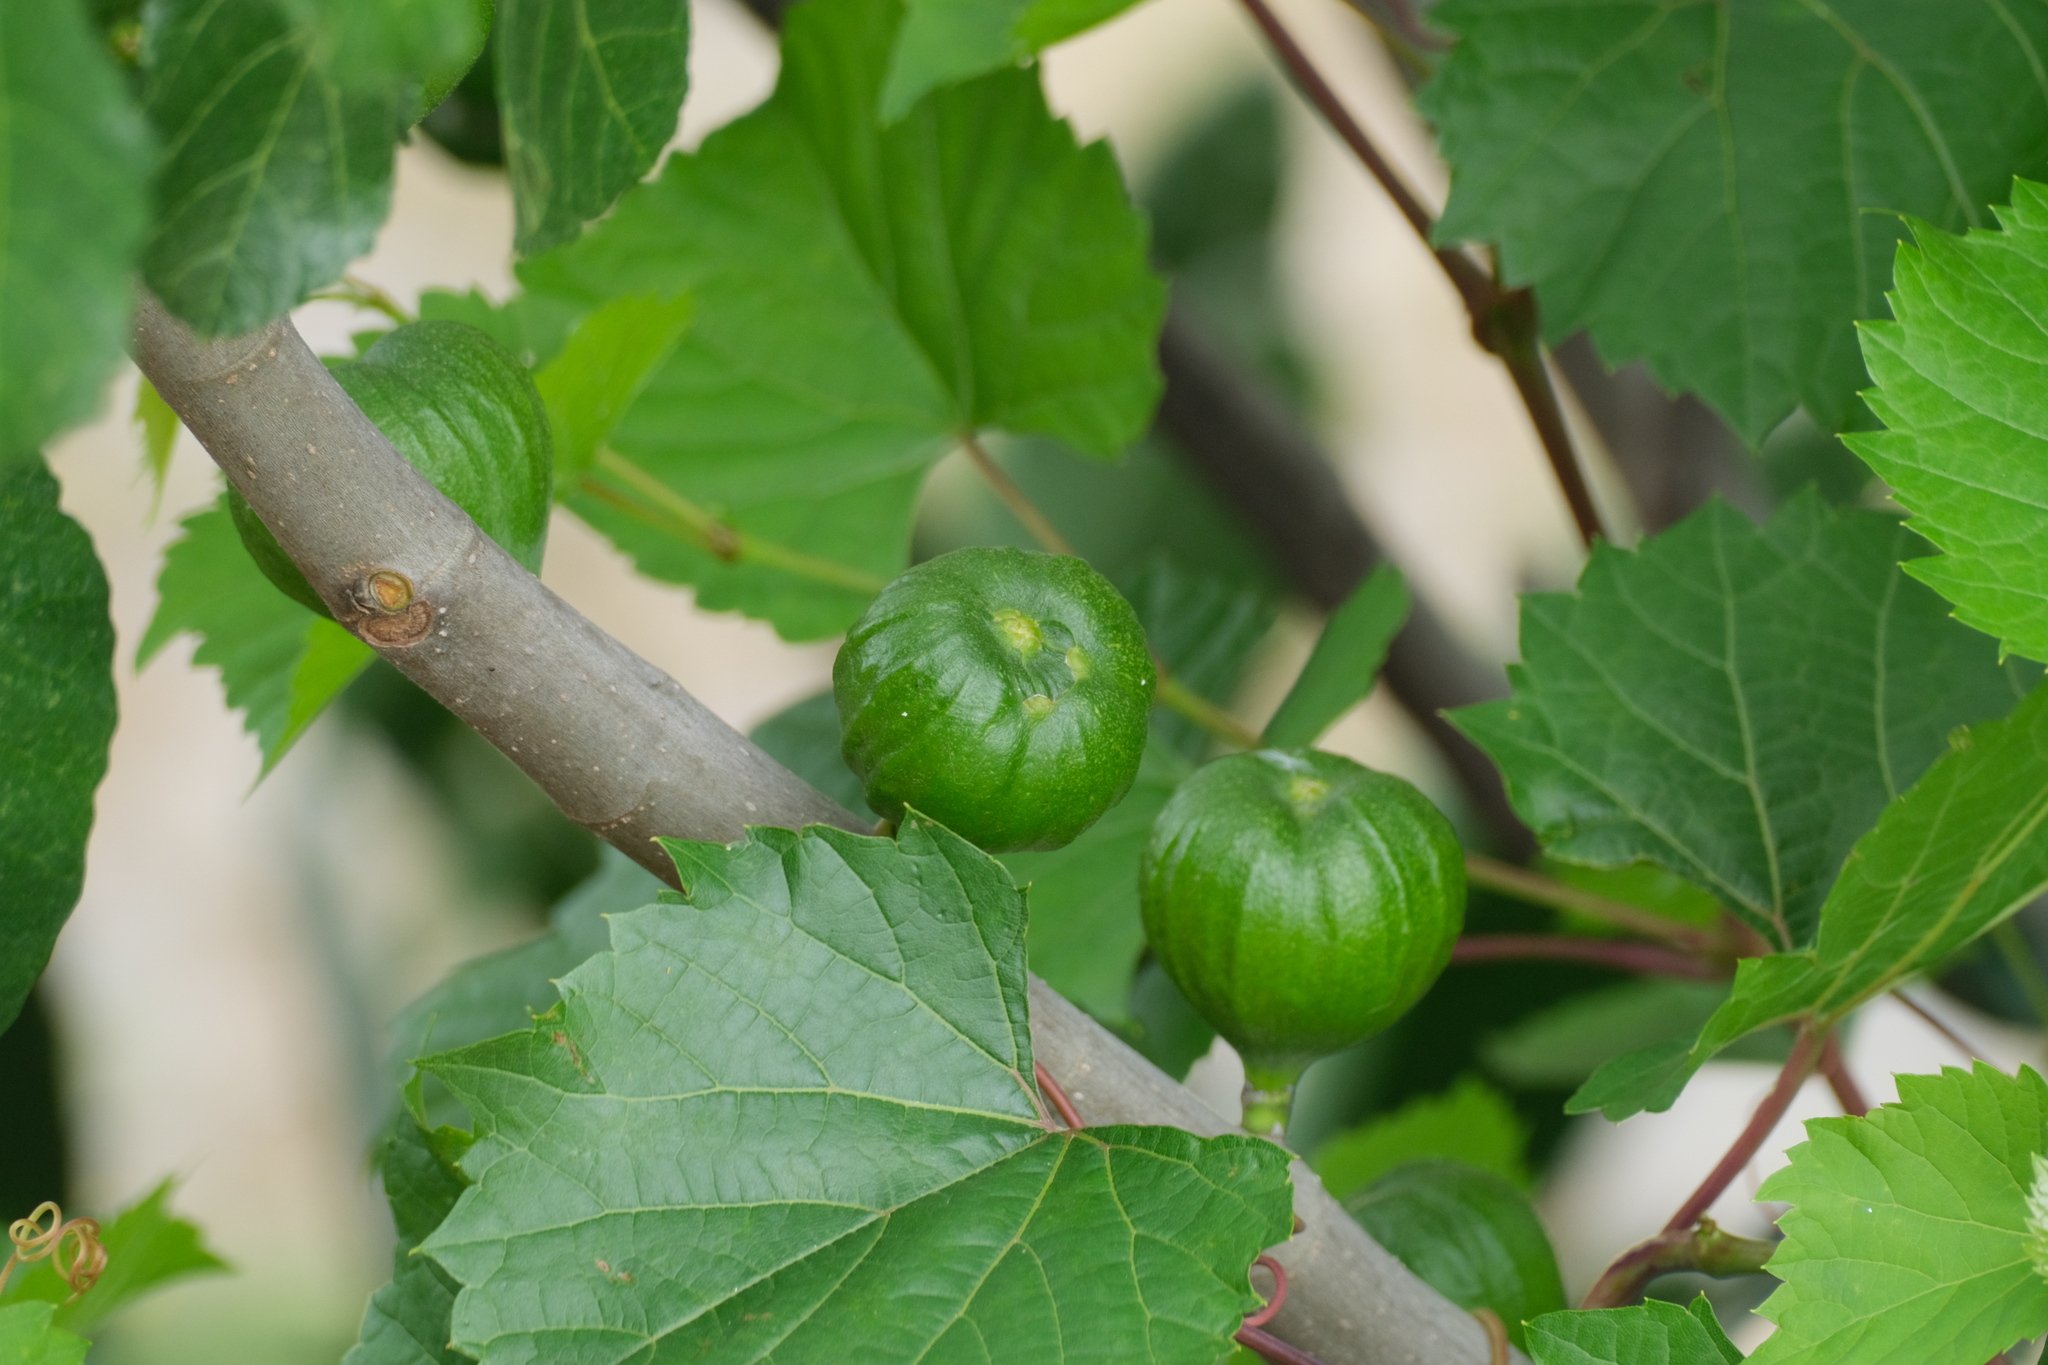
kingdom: Plantae
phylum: Tracheophyta
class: Magnoliopsida
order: Rosales
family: Moraceae
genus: Ficus
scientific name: Ficus carica
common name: Fig
